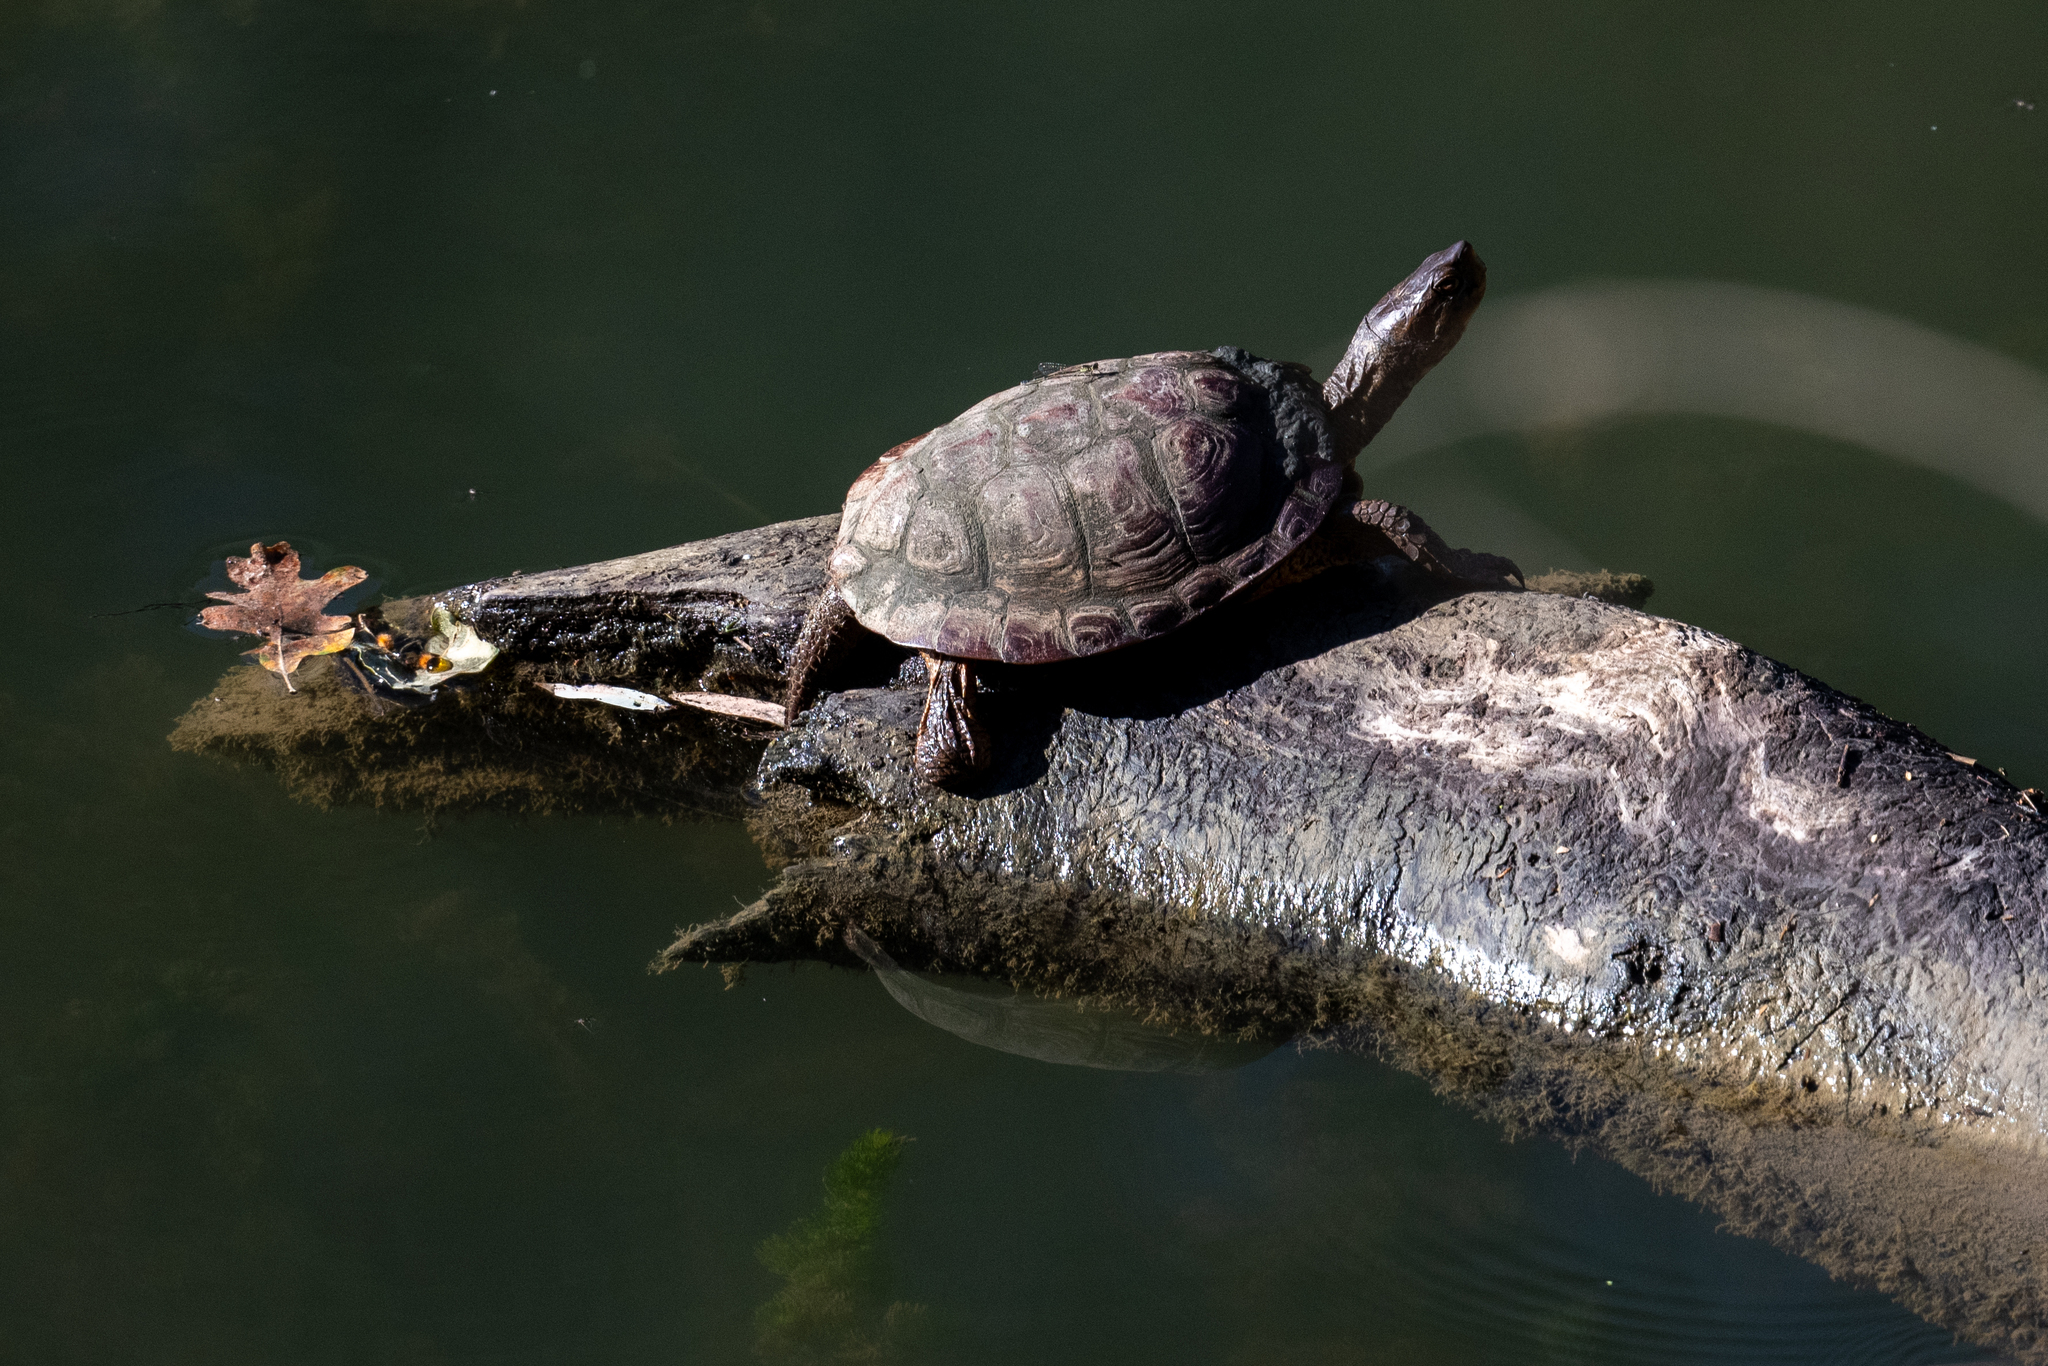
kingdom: Animalia
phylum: Chordata
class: Testudines
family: Emydidae
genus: Actinemys
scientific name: Actinemys marmorata
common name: Western pond turtle
